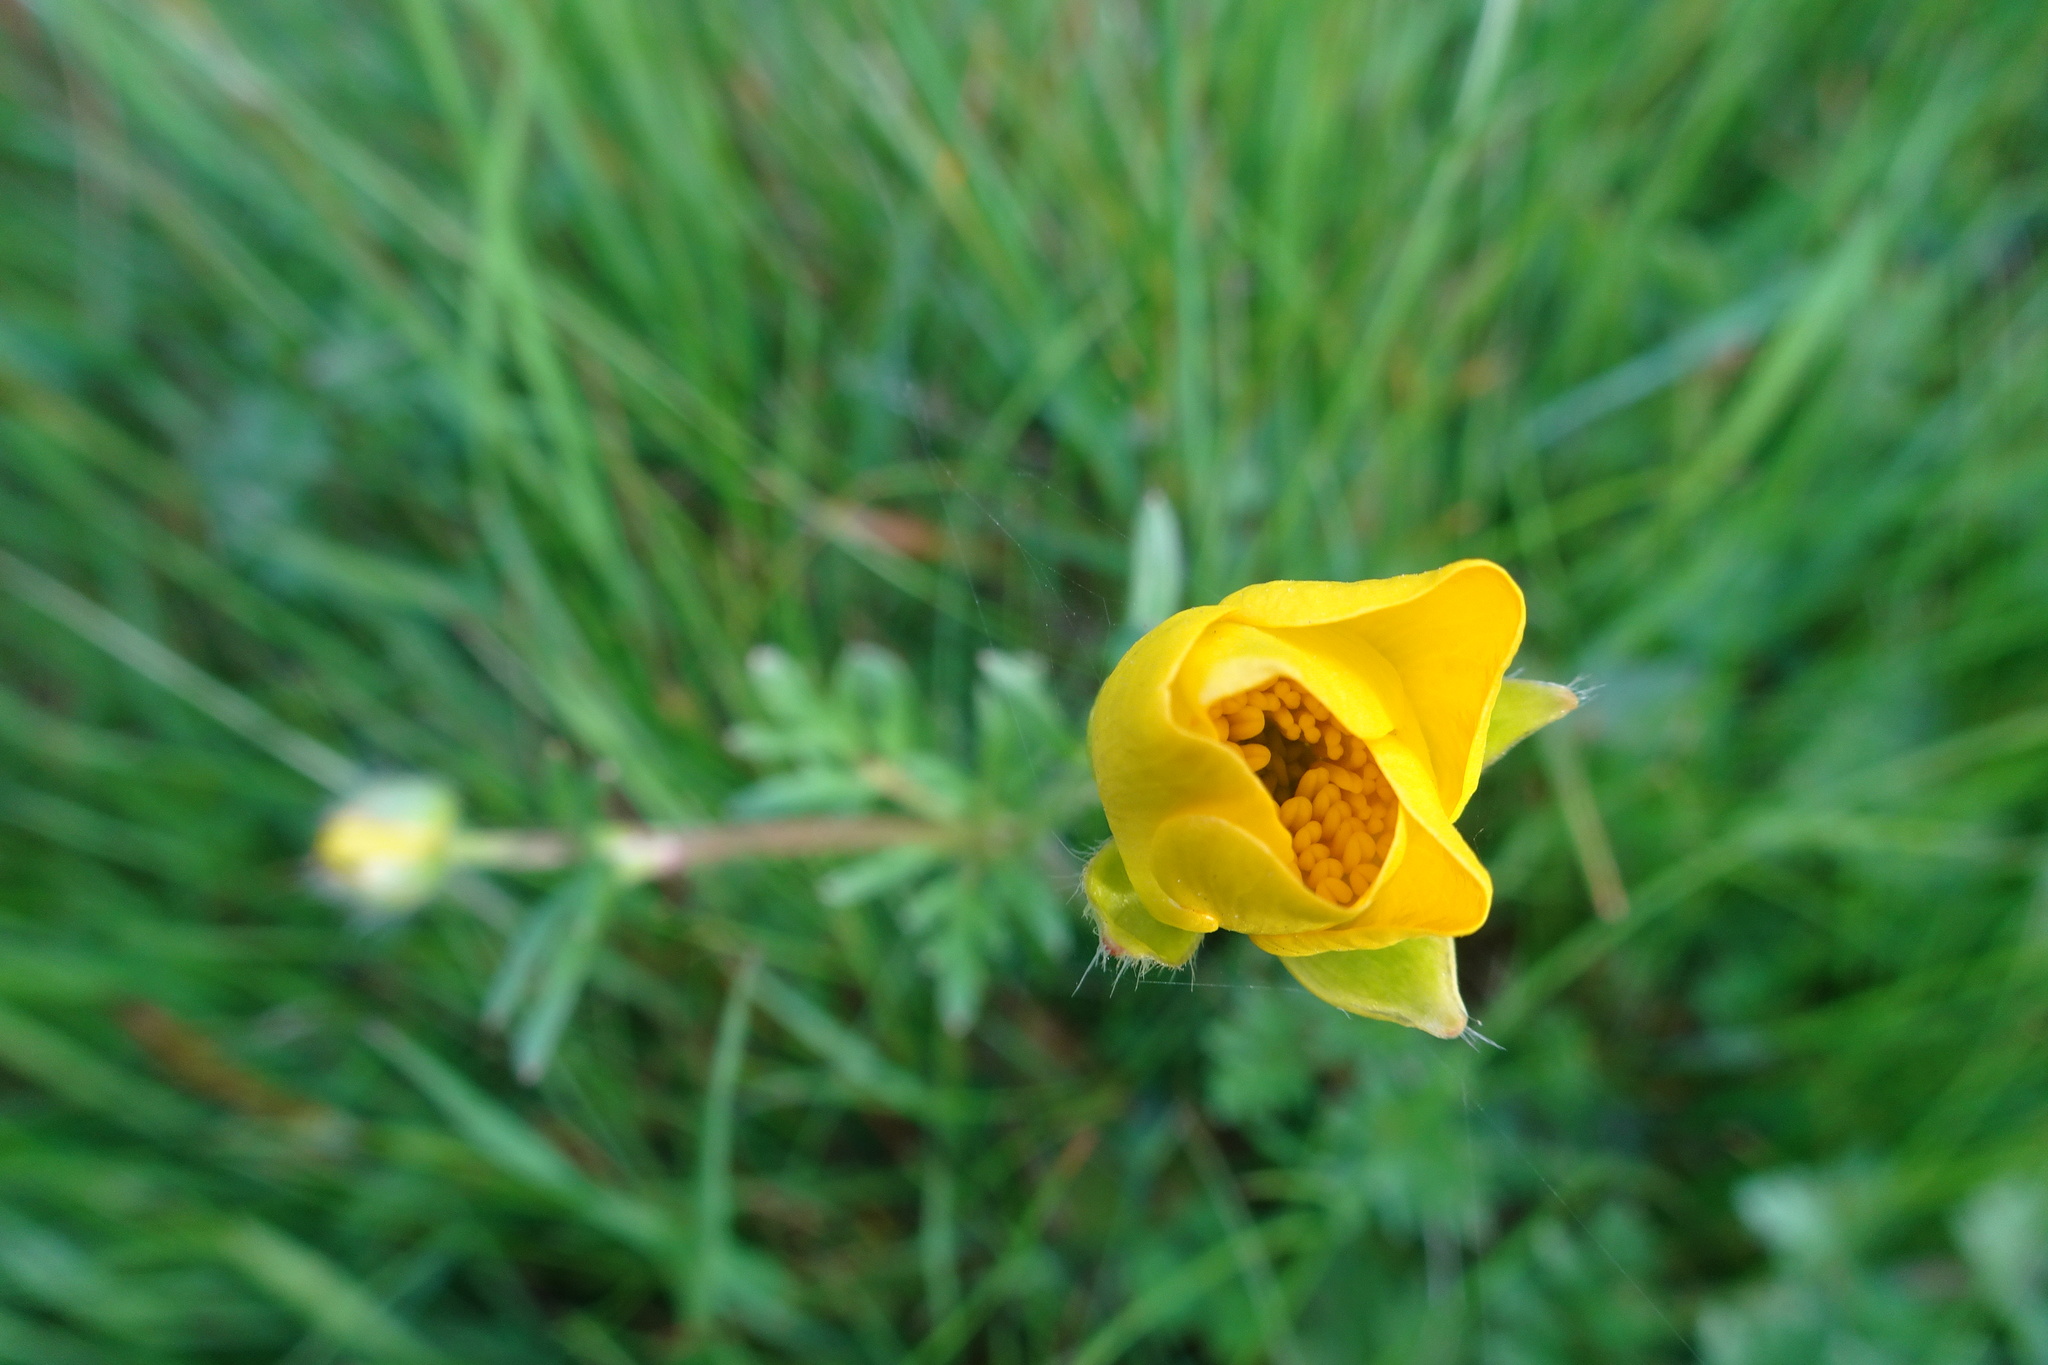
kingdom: Plantae
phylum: Tracheophyta
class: Magnoliopsida
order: Ranunculales
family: Ranunculaceae
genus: Ranunculus
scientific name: Ranunculus bulbosus
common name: Bulbous buttercup
